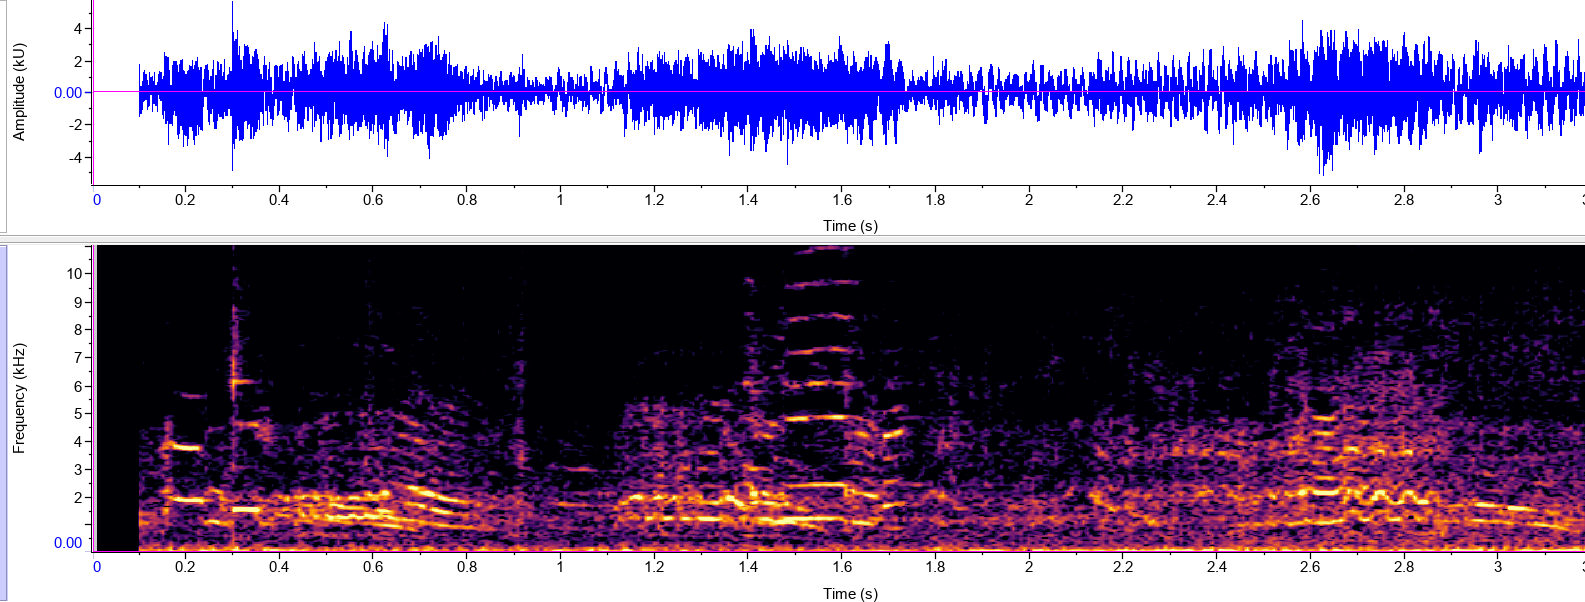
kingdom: Animalia
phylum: Chordata
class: Aves
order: Psittaciformes
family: Psittacidae
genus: Amazona
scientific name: Amazona aestiva
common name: Turquoise-fronted amazon
